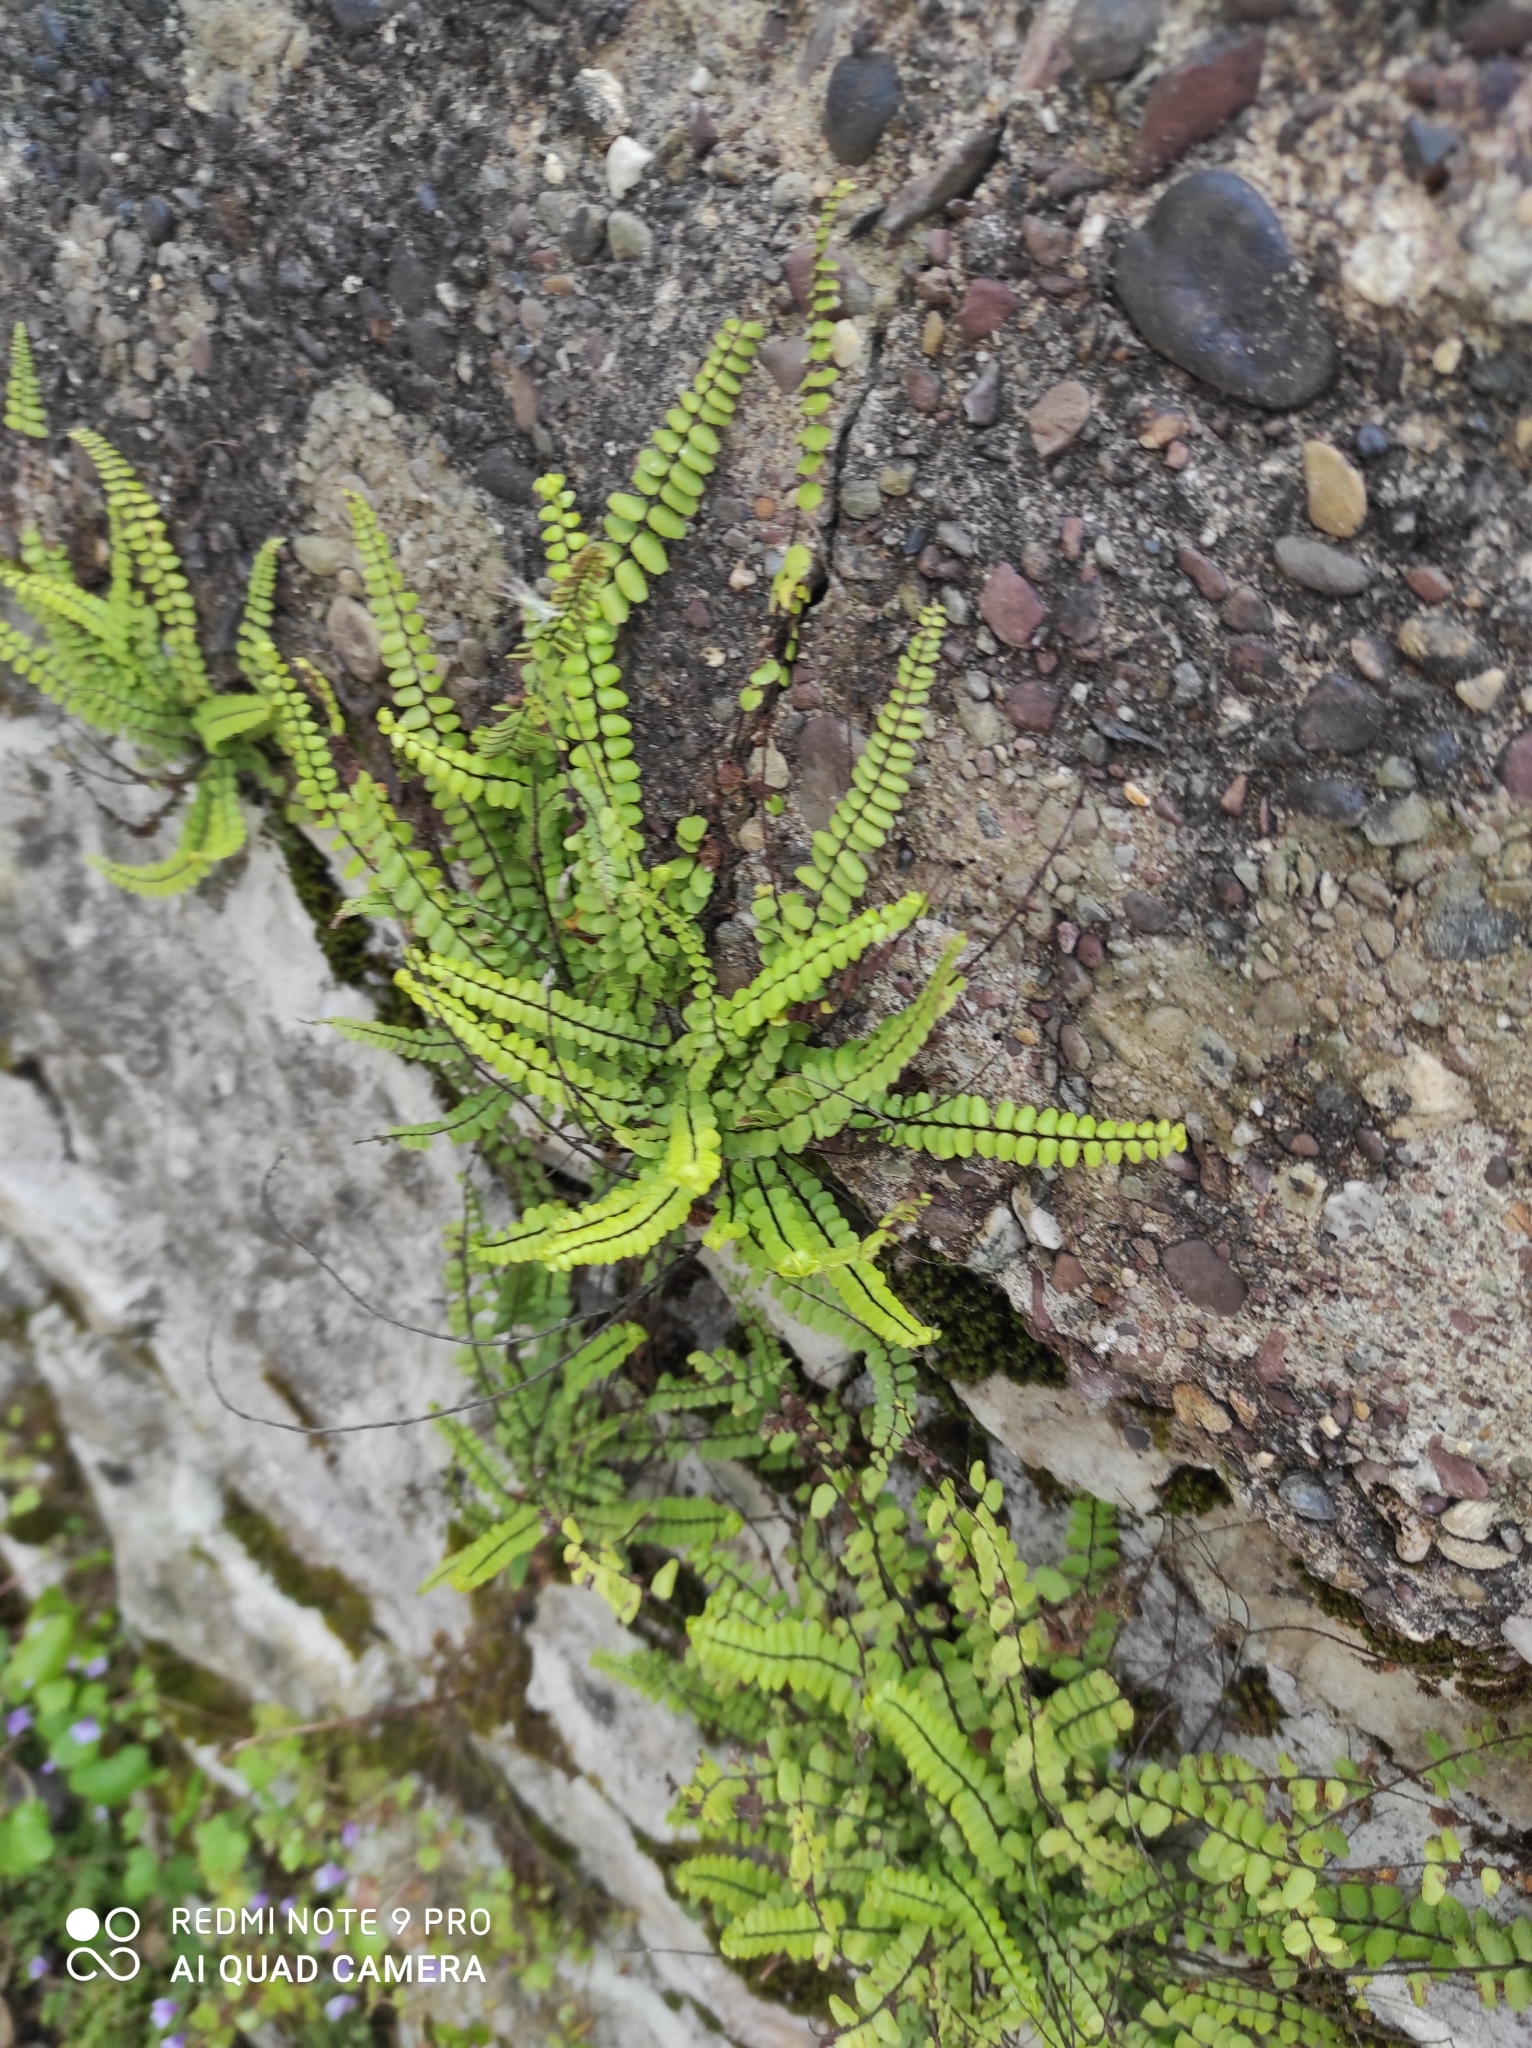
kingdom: Plantae
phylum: Tracheophyta
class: Polypodiopsida
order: Polypodiales
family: Aspleniaceae
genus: Asplenium
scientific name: Asplenium trichomanes
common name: Maidenhair spleenwort
